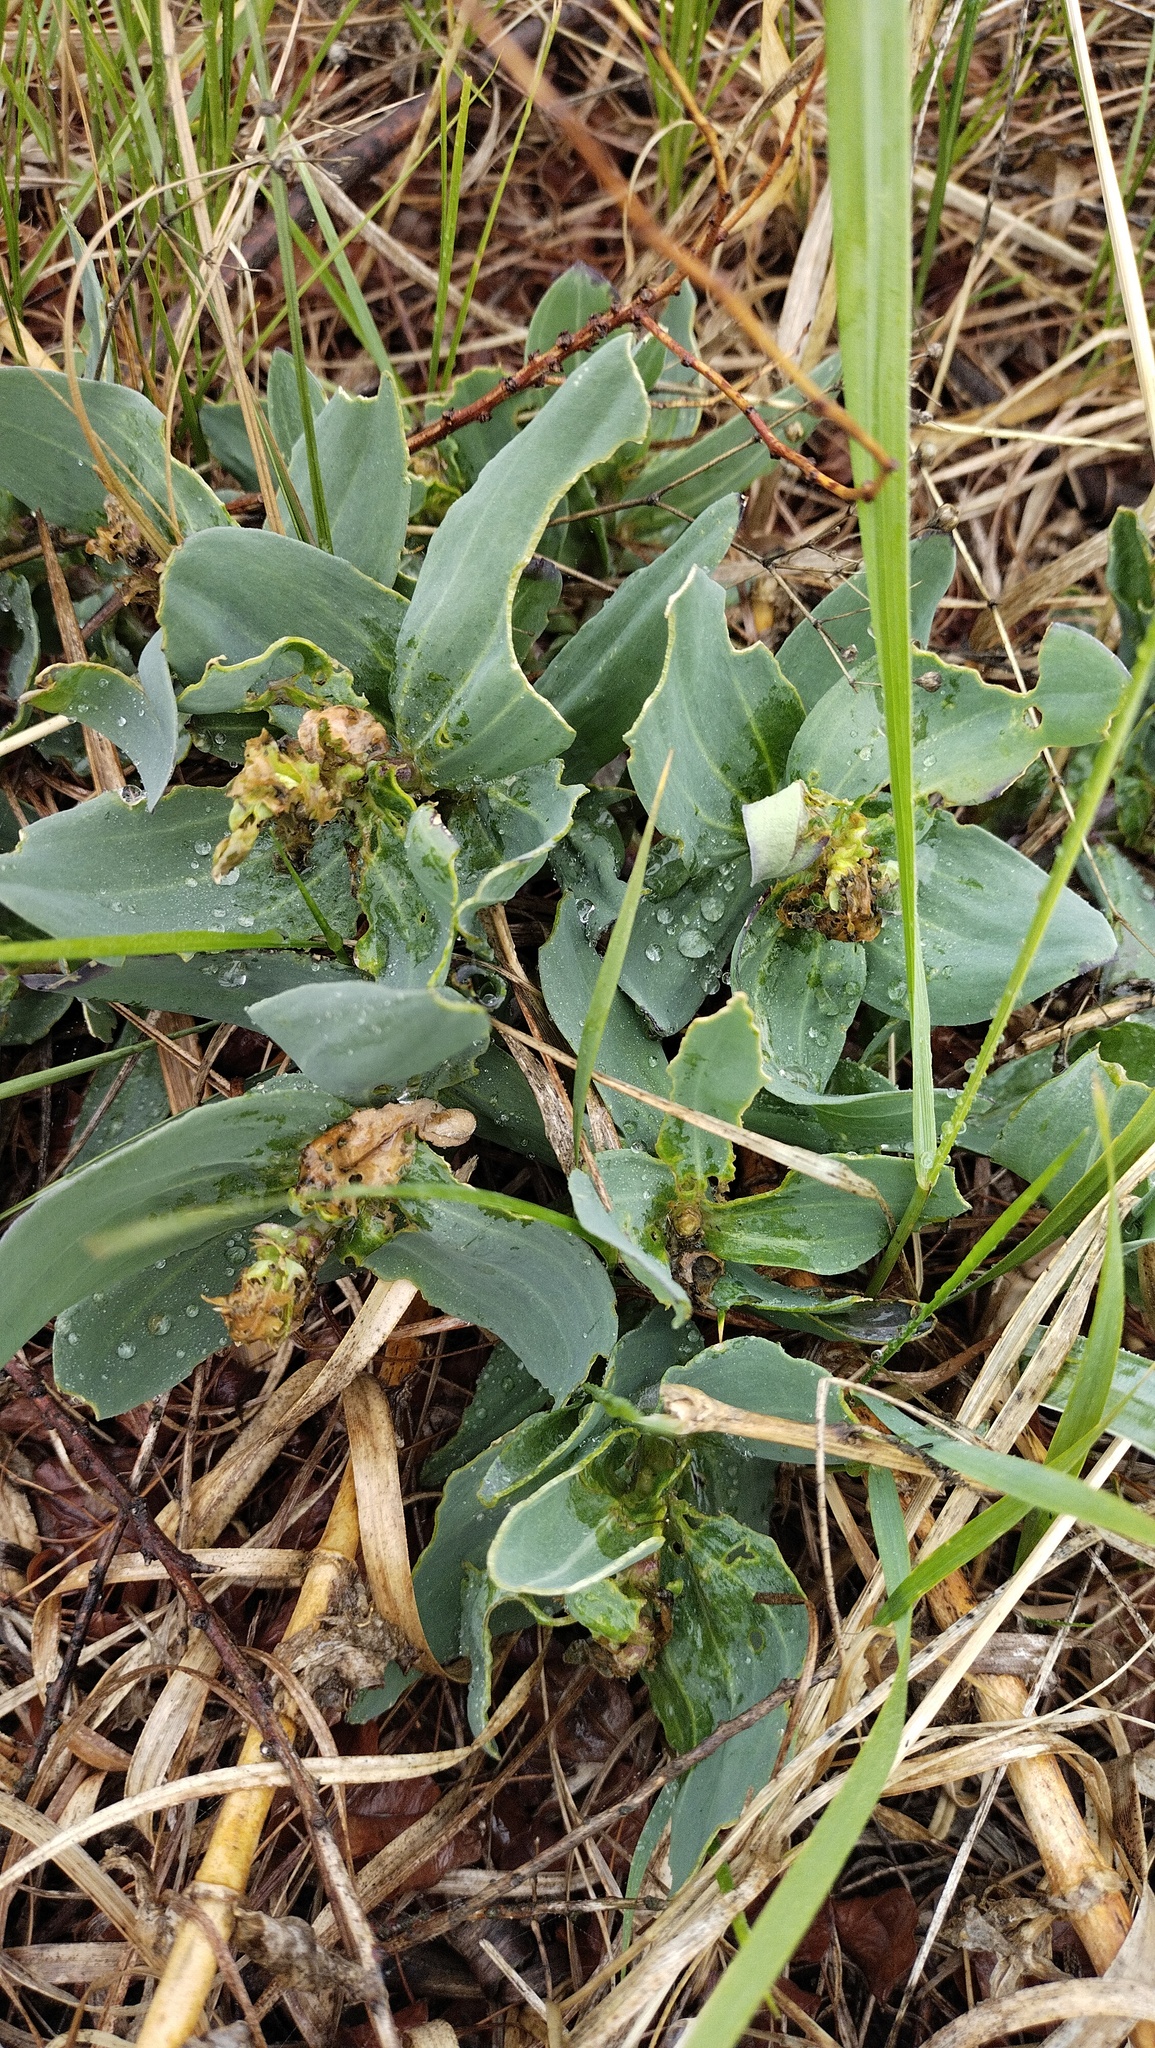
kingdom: Plantae
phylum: Tracheophyta
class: Magnoliopsida
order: Caryophyllales
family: Caryophyllaceae
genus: Gypsophila
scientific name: Gypsophila pacifica
